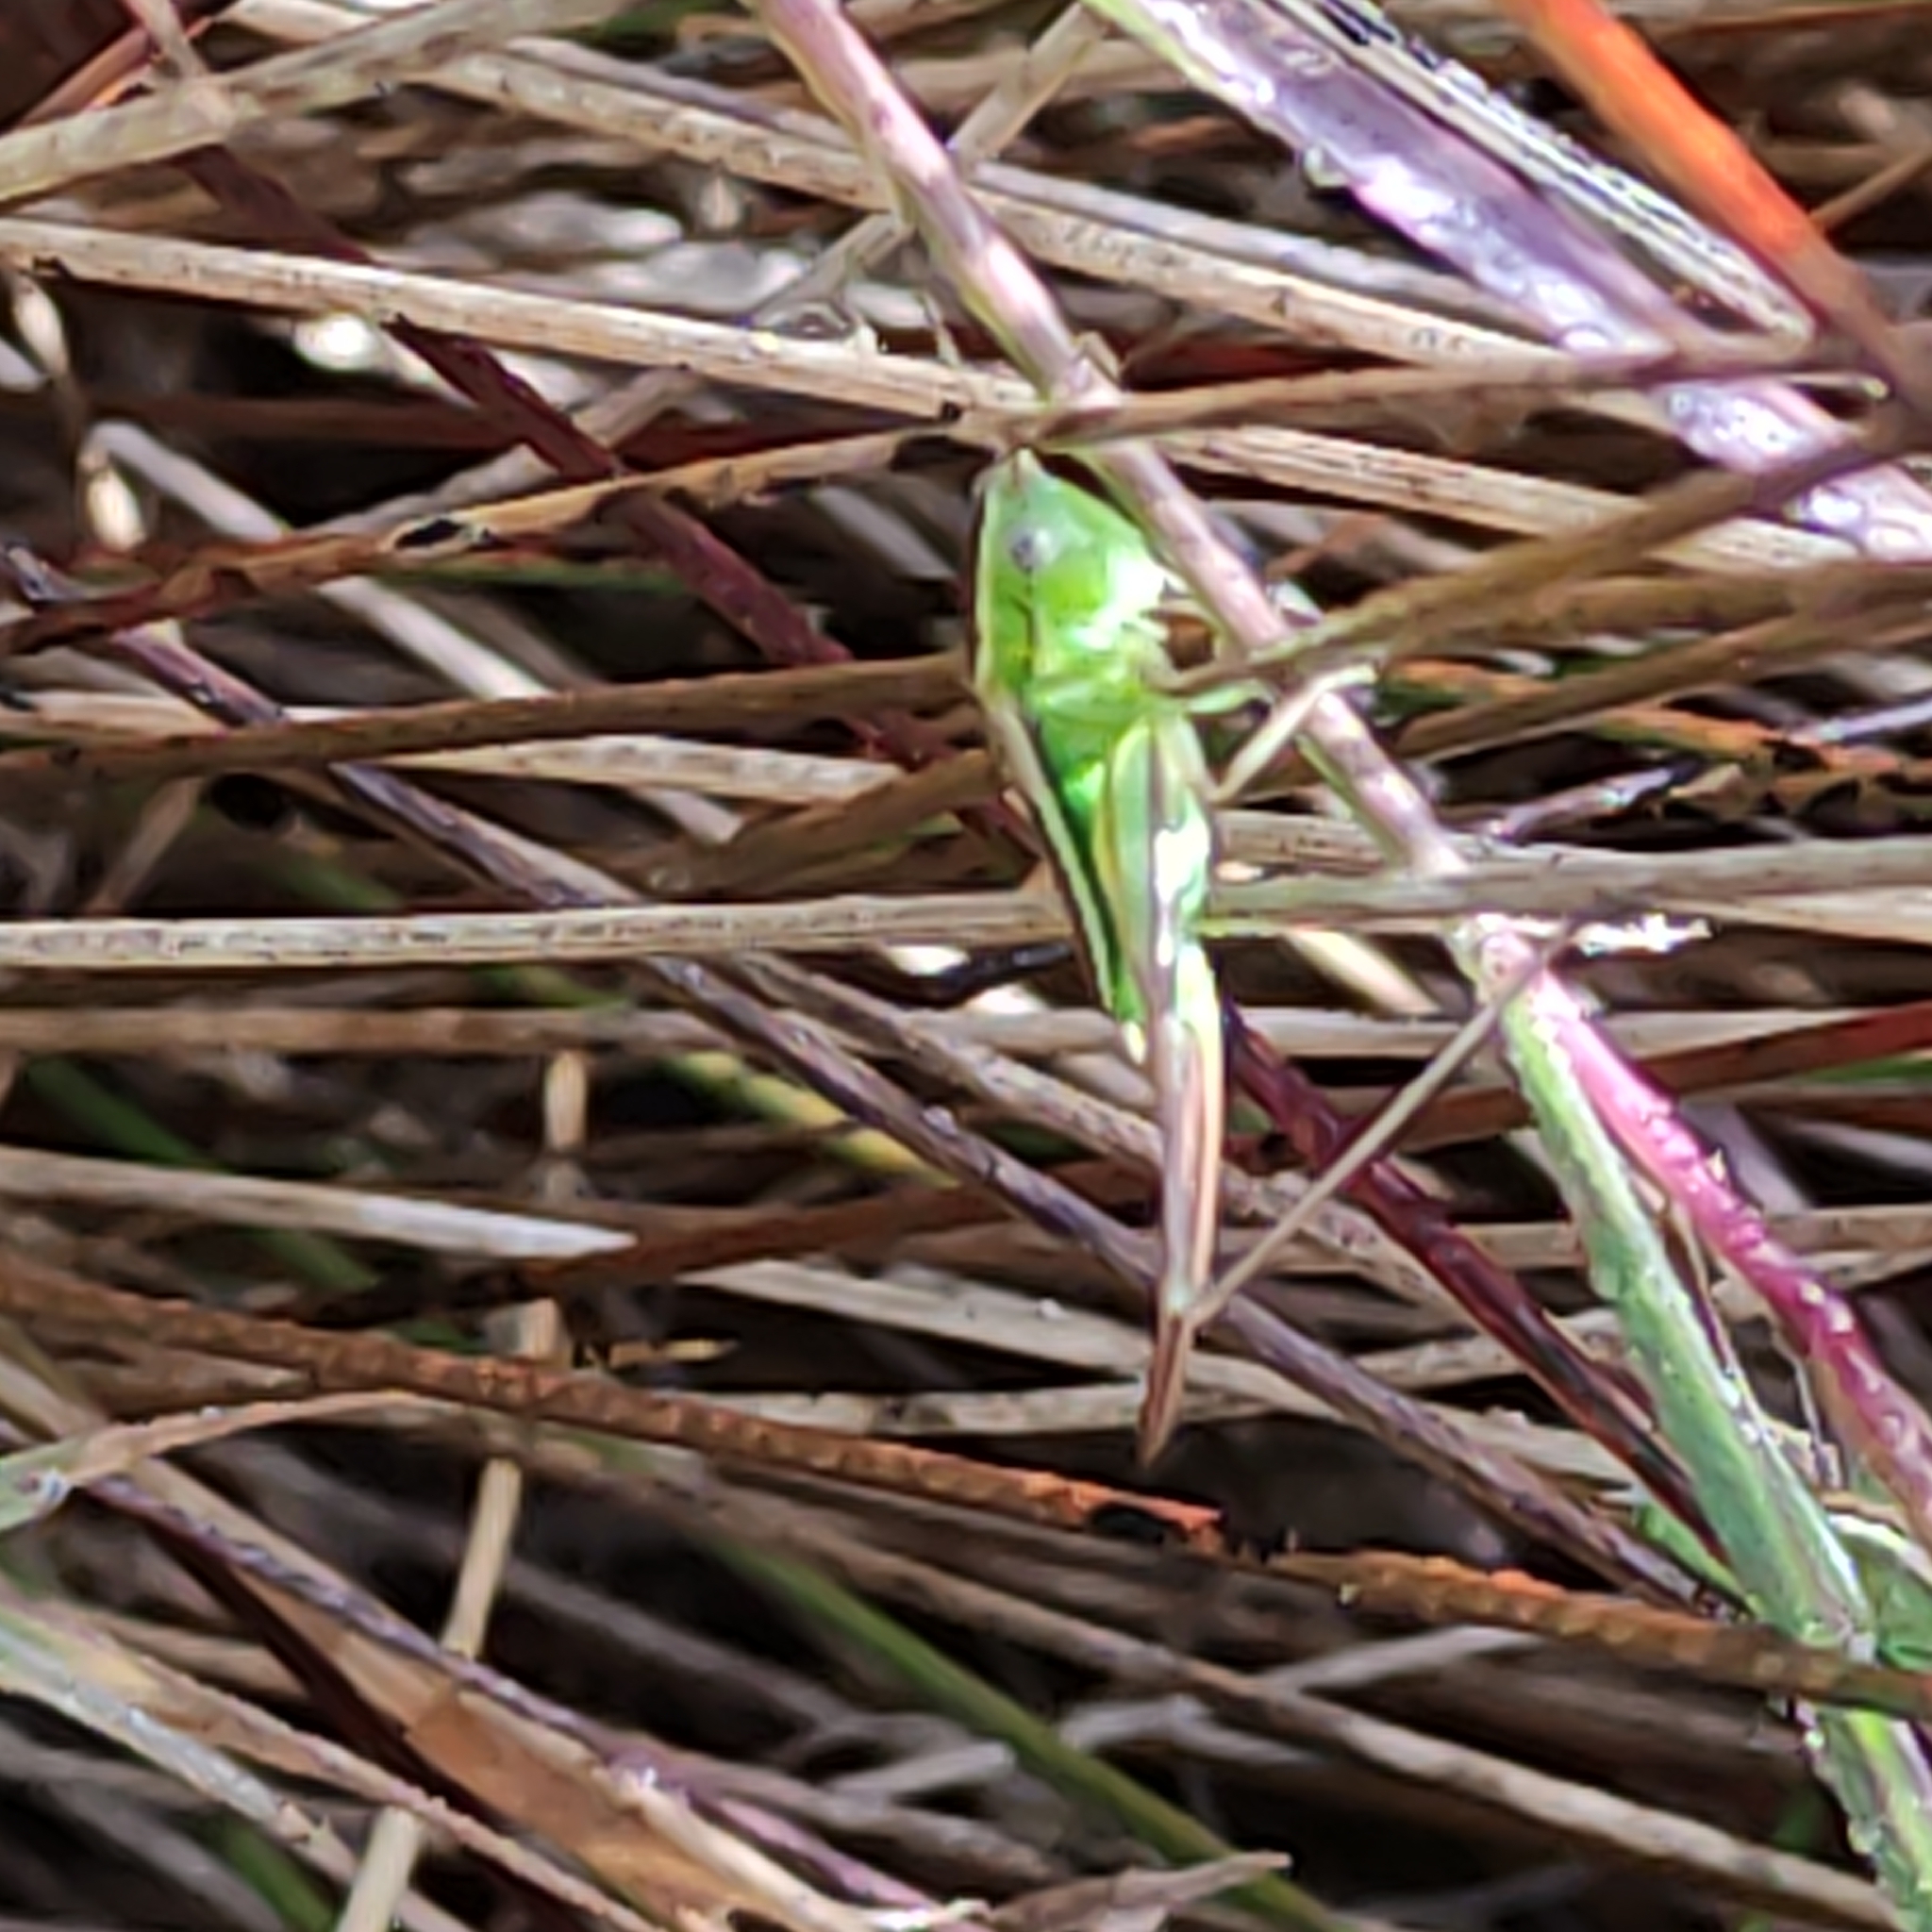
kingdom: Animalia
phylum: Arthropoda
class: Insecta
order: Orthoptera
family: Tettigoniidae
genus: Conocephalus
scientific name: Conocephalus bilineatus
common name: Small meadow katydid
